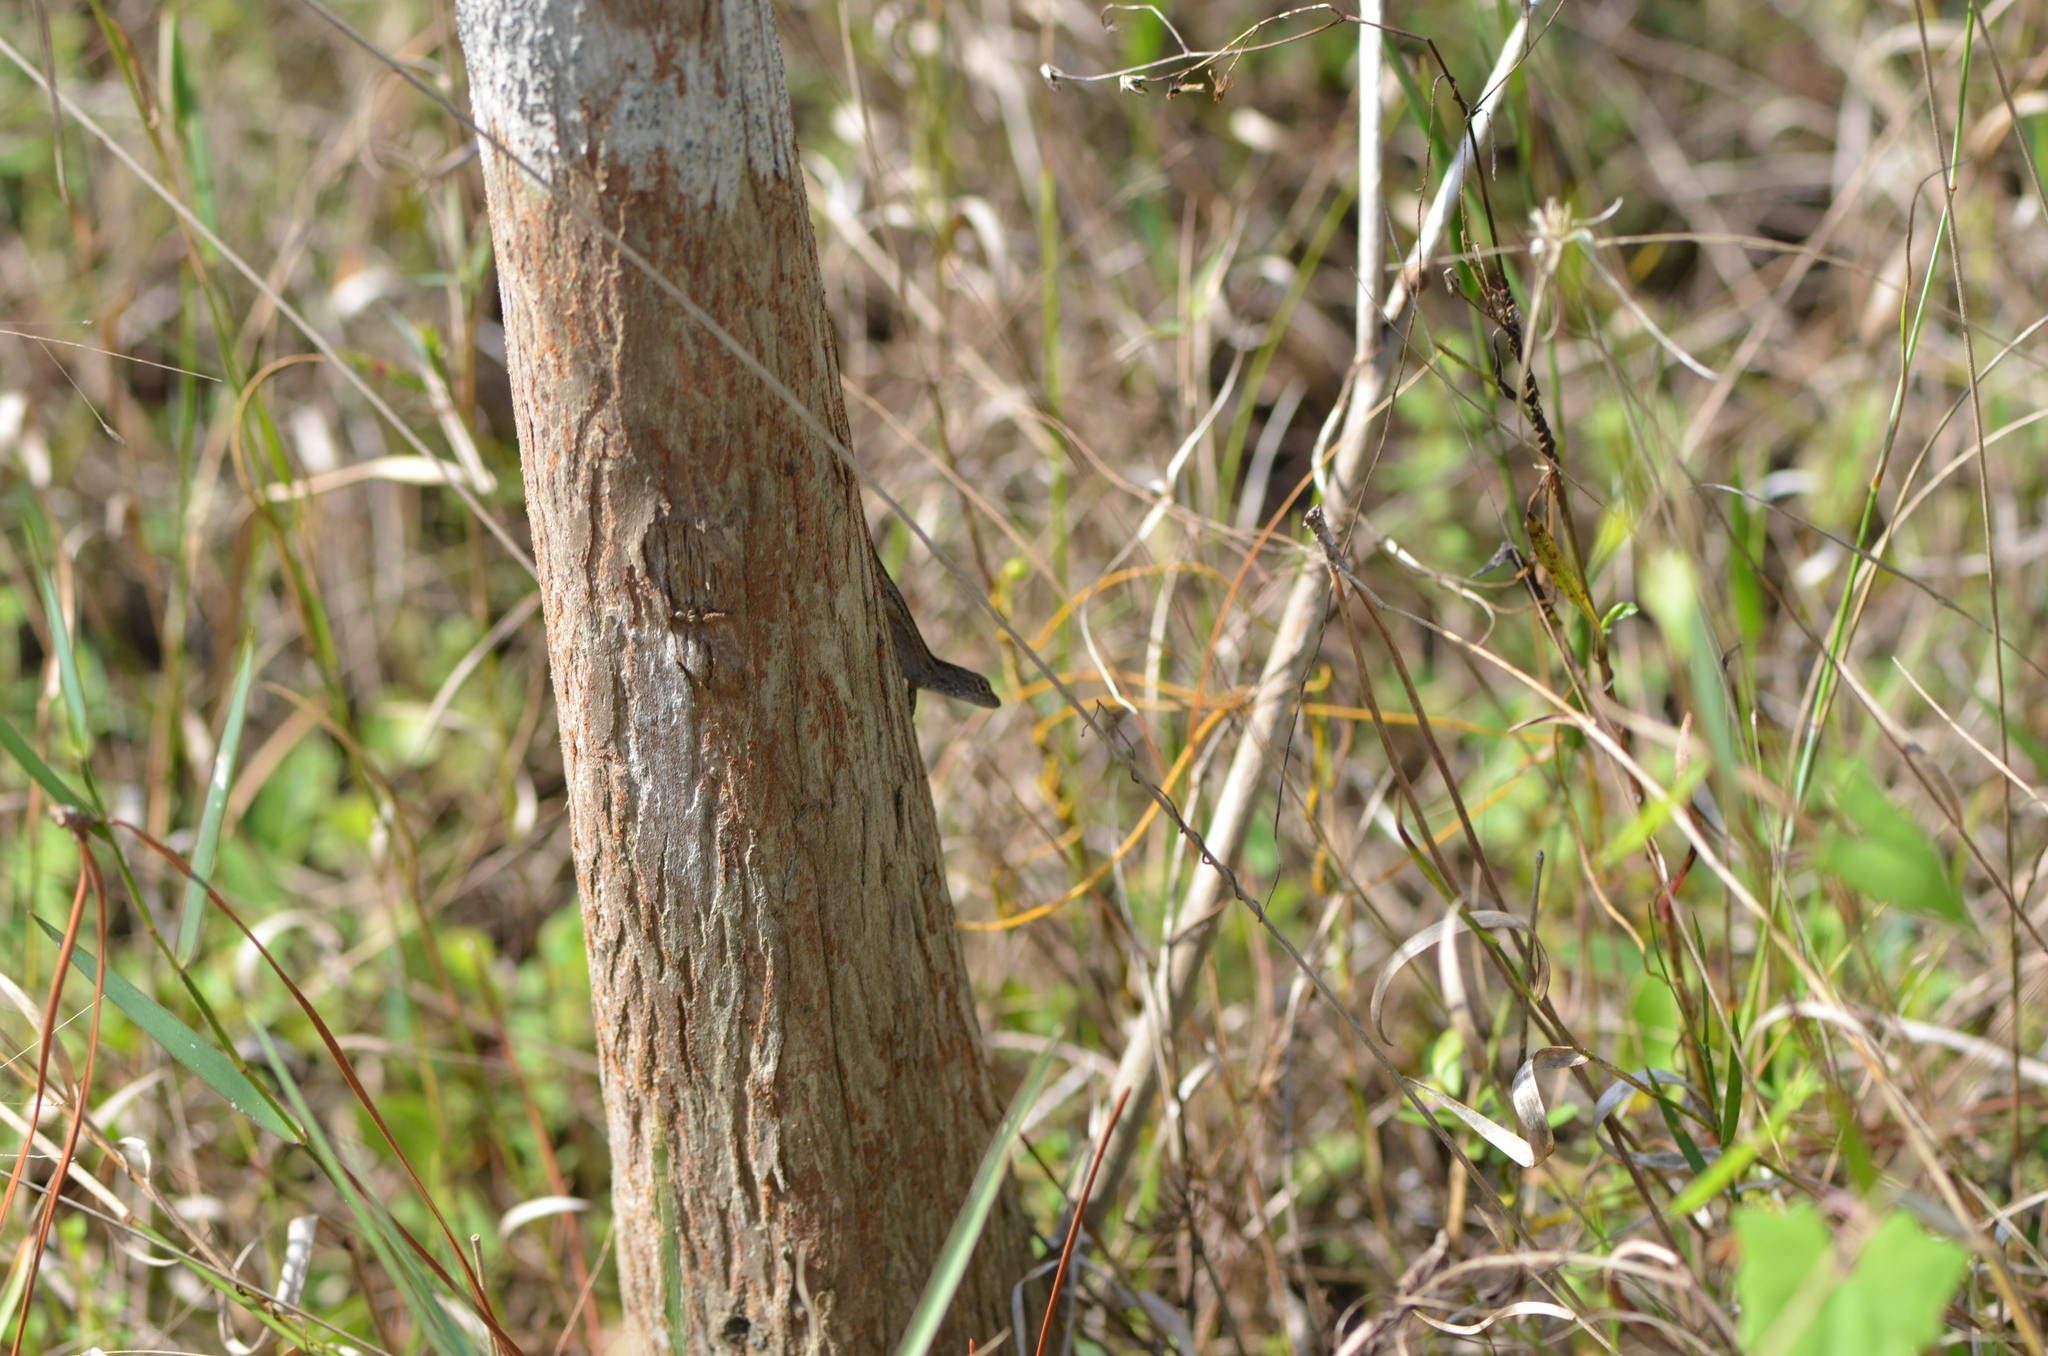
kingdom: Animalia
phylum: Chordata
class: Squamata
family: Dactyloidae
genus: Anolis
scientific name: Anolis sagrei
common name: Brown anole
